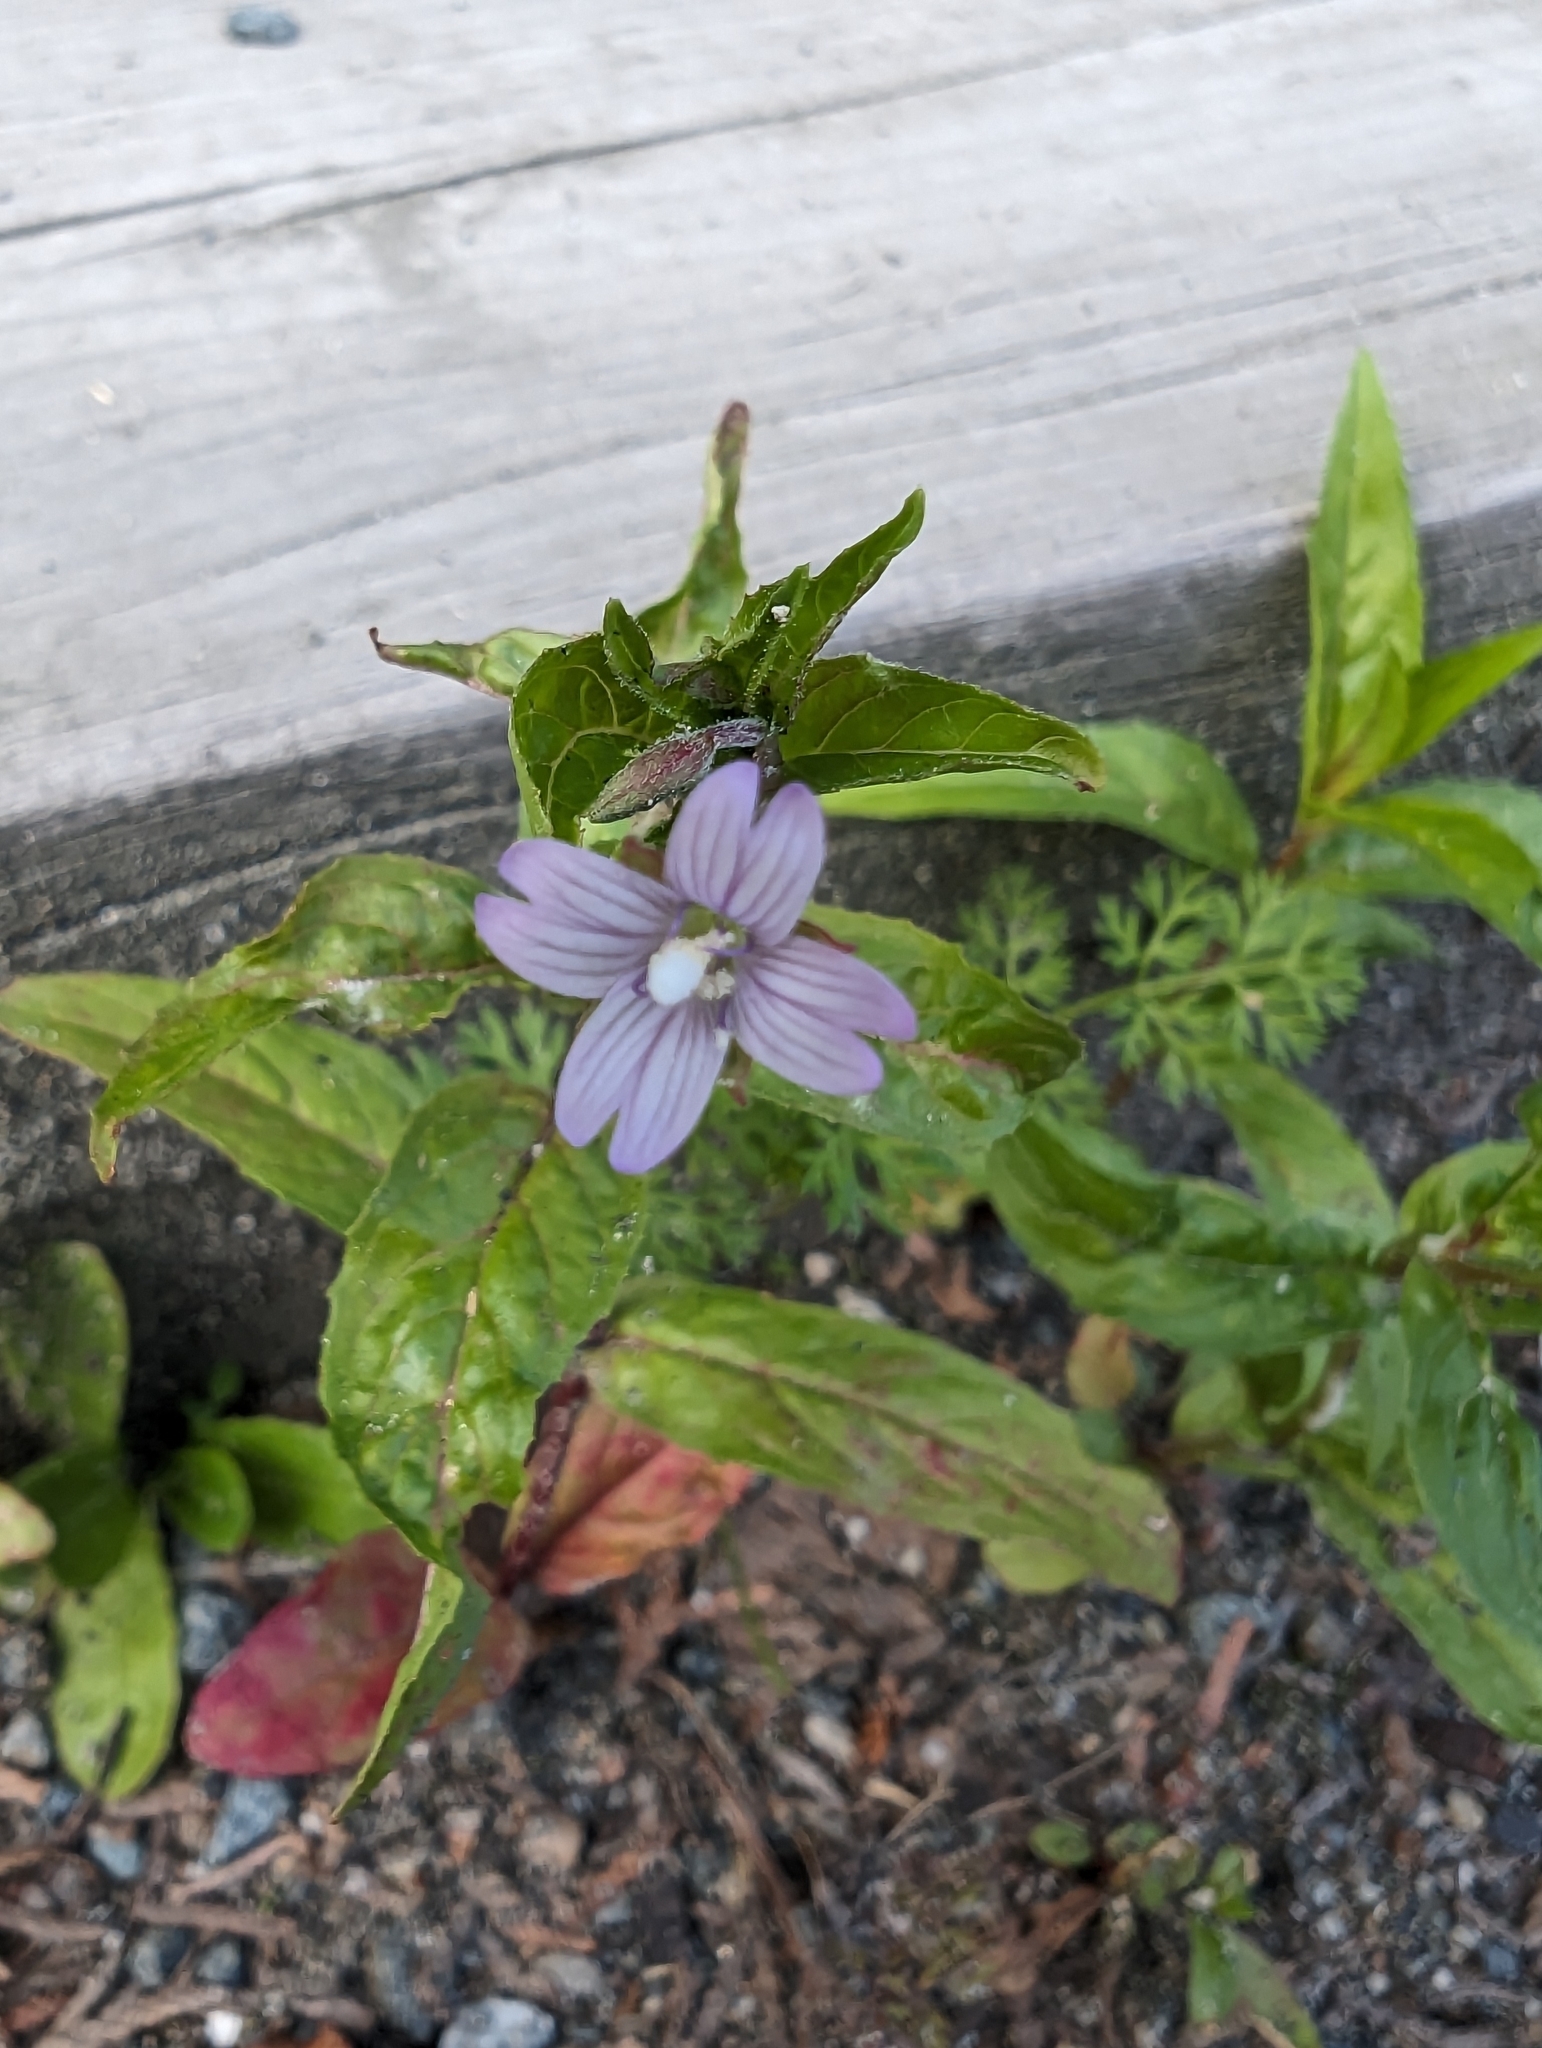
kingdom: Plantae
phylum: Tracheophyta
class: Magnoliopsida
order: Myrtales
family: Onagraceae
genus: Epilobium
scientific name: Epilobium ciliatum
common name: American willowherb
